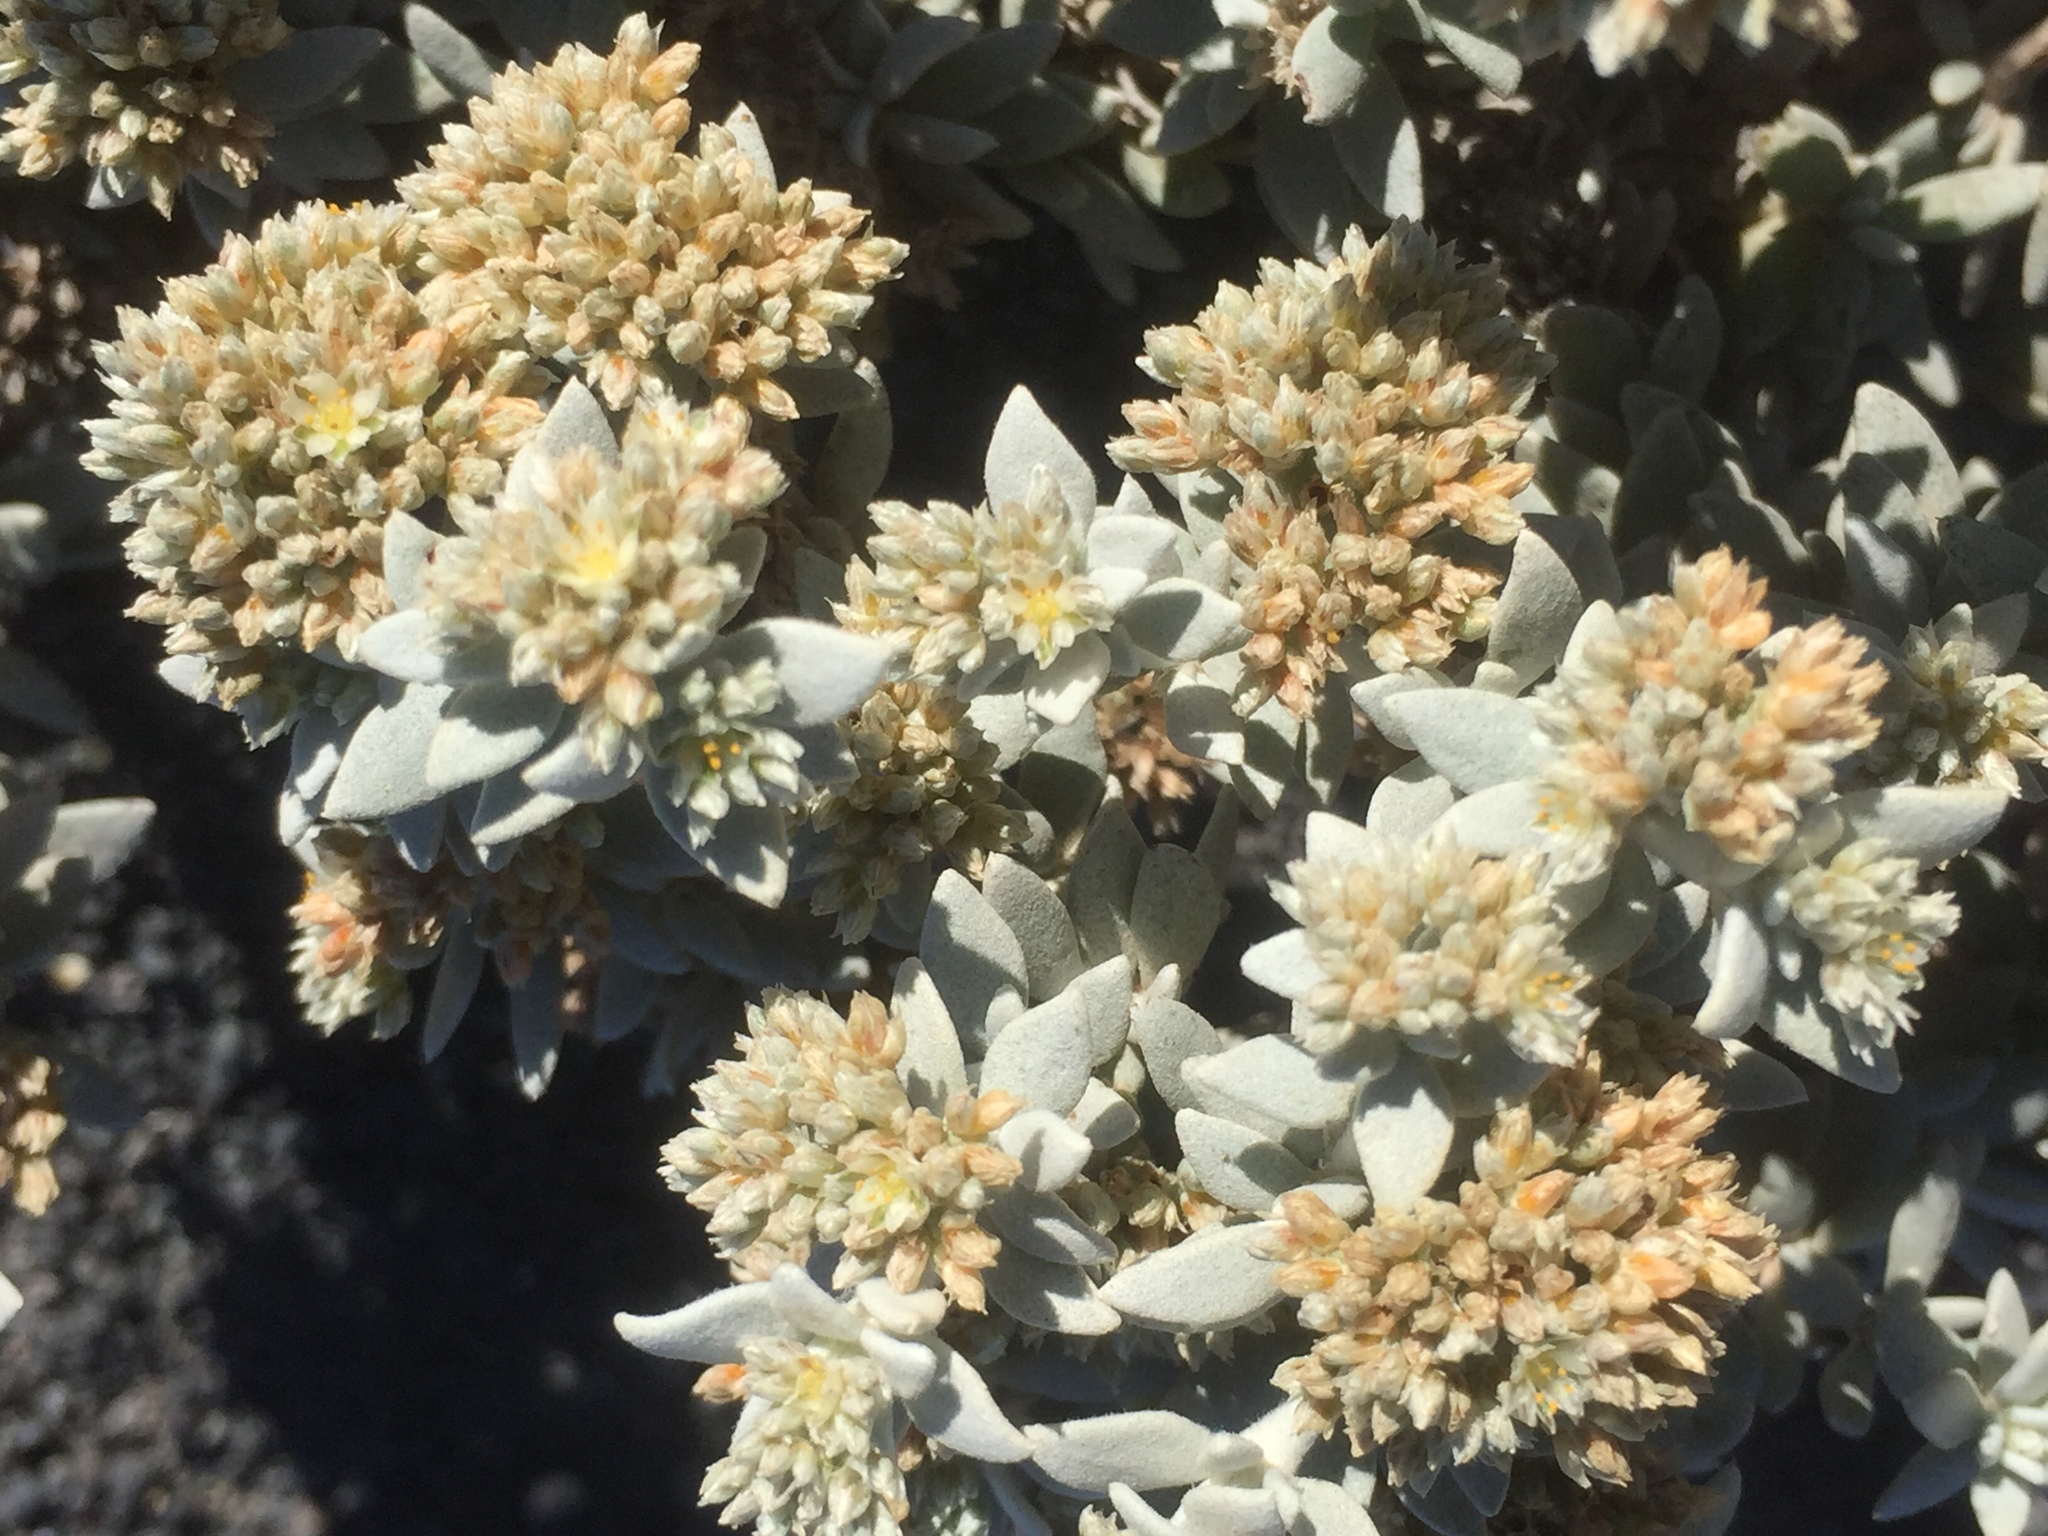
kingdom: Plantae
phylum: Tracheophyta
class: Magnoliopsida
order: Caryophyllales
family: Caryophyllaceae
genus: Polycarpaea
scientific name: Polycarpaea nivea
